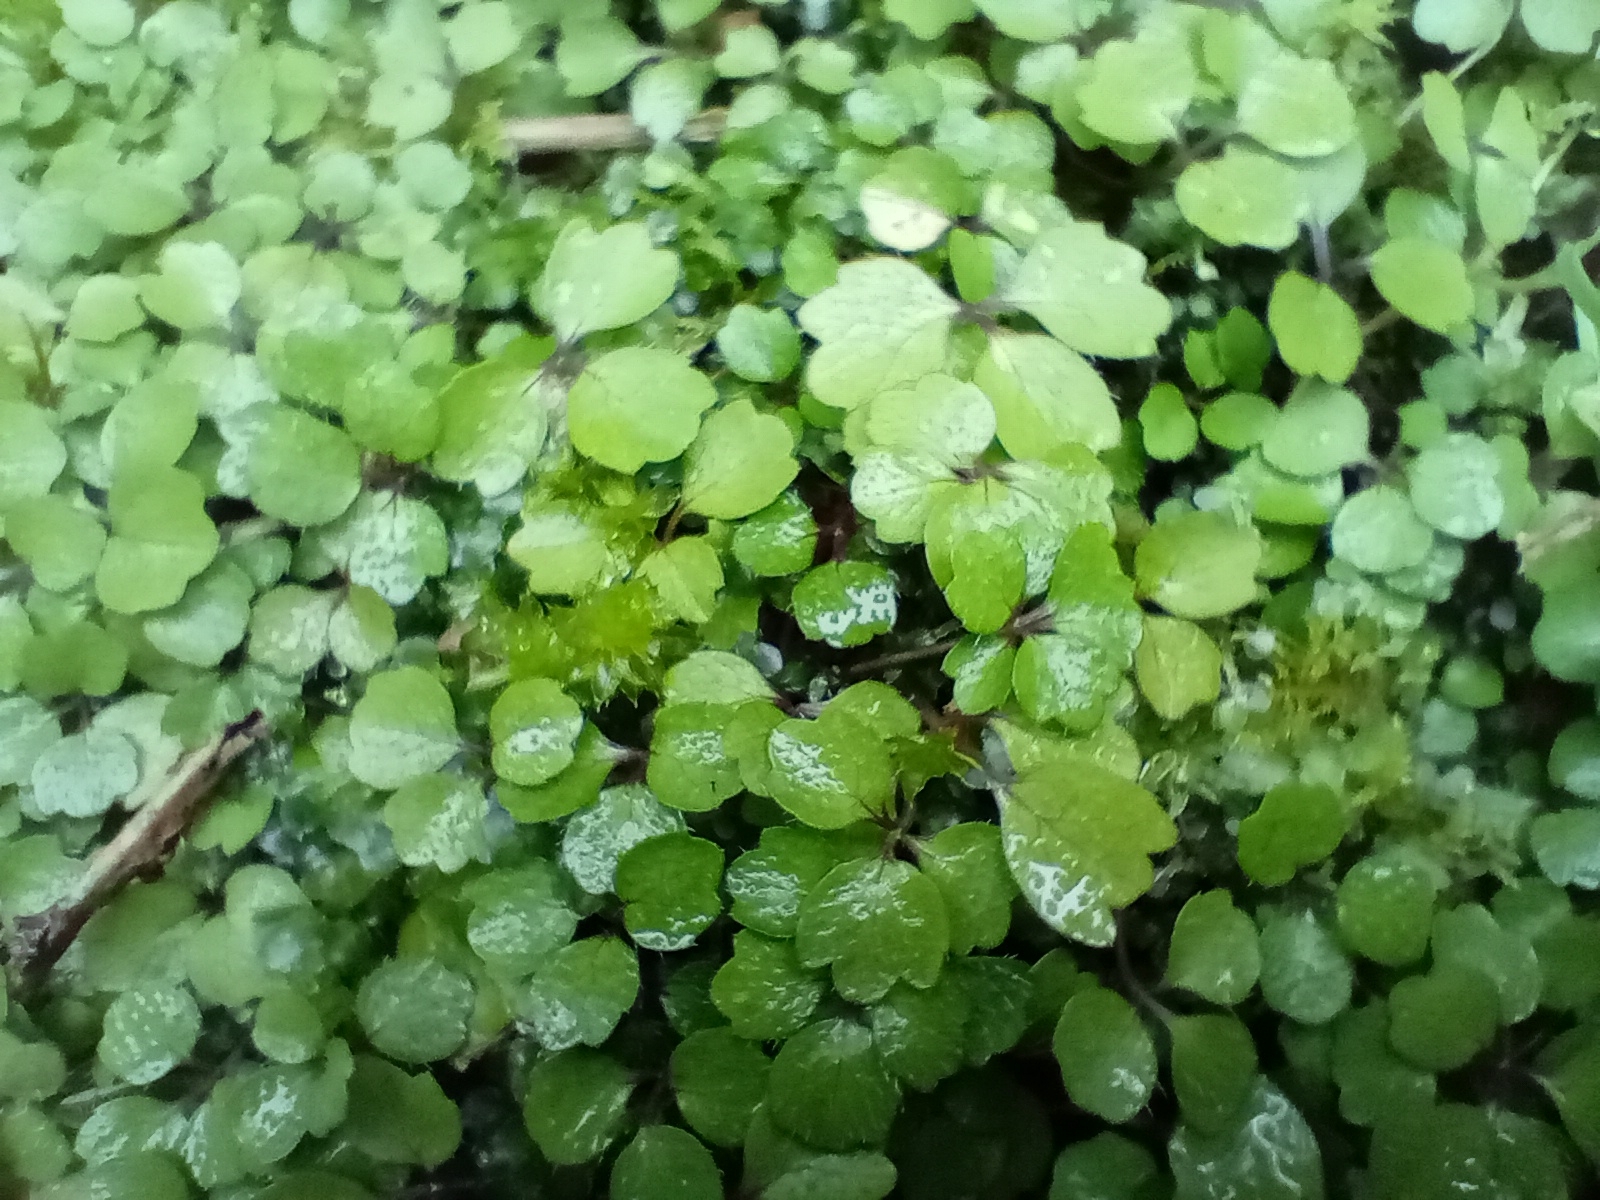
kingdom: Plantae
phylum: Tracheophyta
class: Magnoliopsida
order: Apiales
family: Apiaceae
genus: Azorella
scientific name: Azorella hookeri
